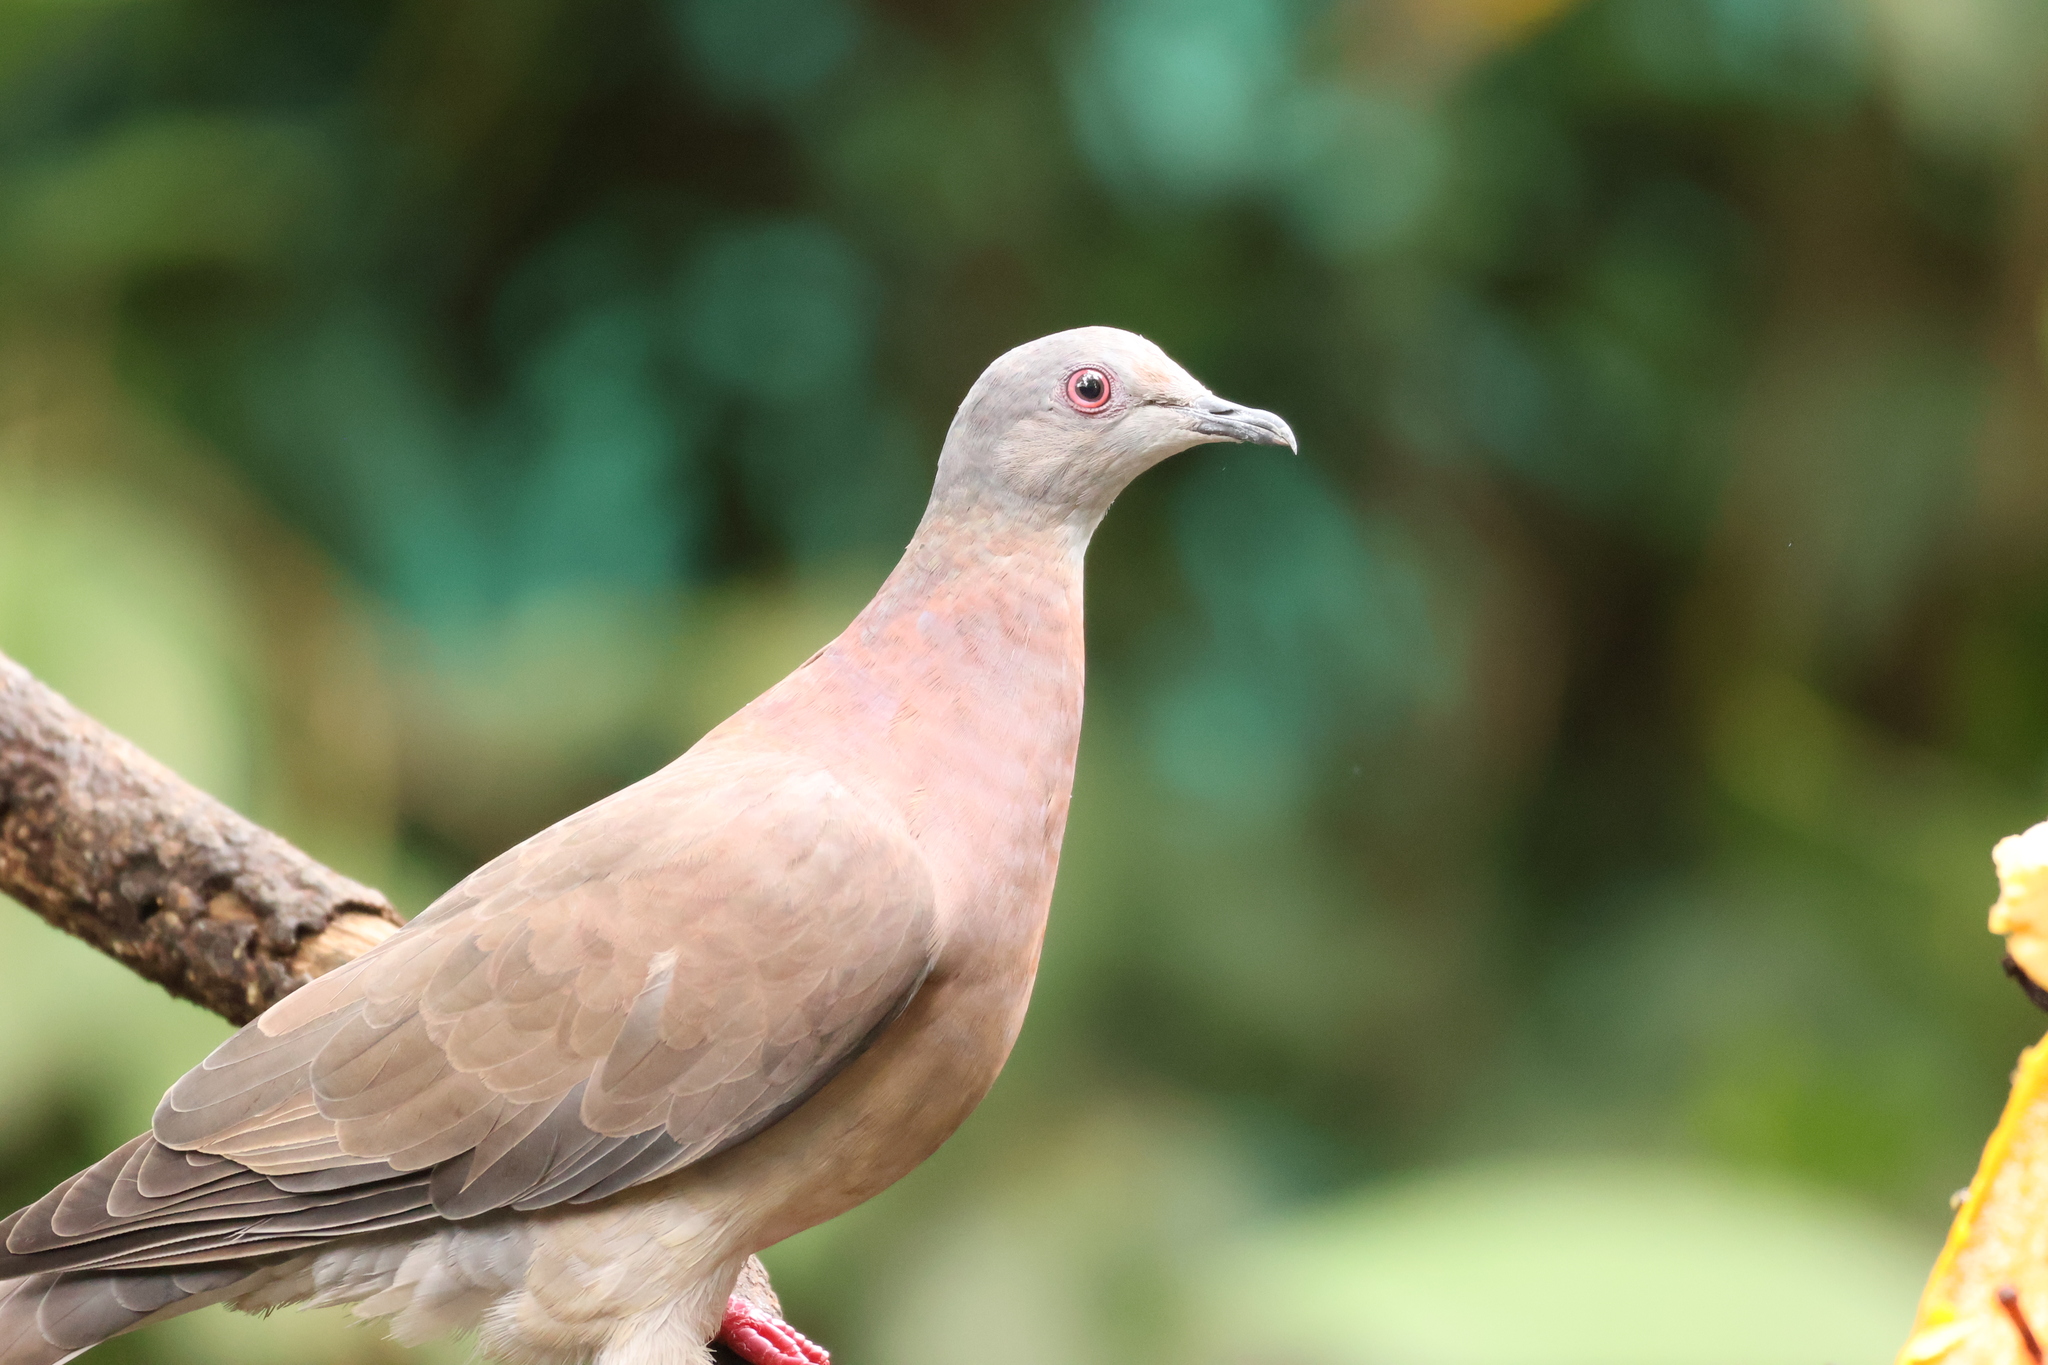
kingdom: Animalia
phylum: Chordata
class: Aves
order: Columbiformes
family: Columbidae
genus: Patagioenas
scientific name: Patagioenas cayennensis
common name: Pale-vented pigeon
